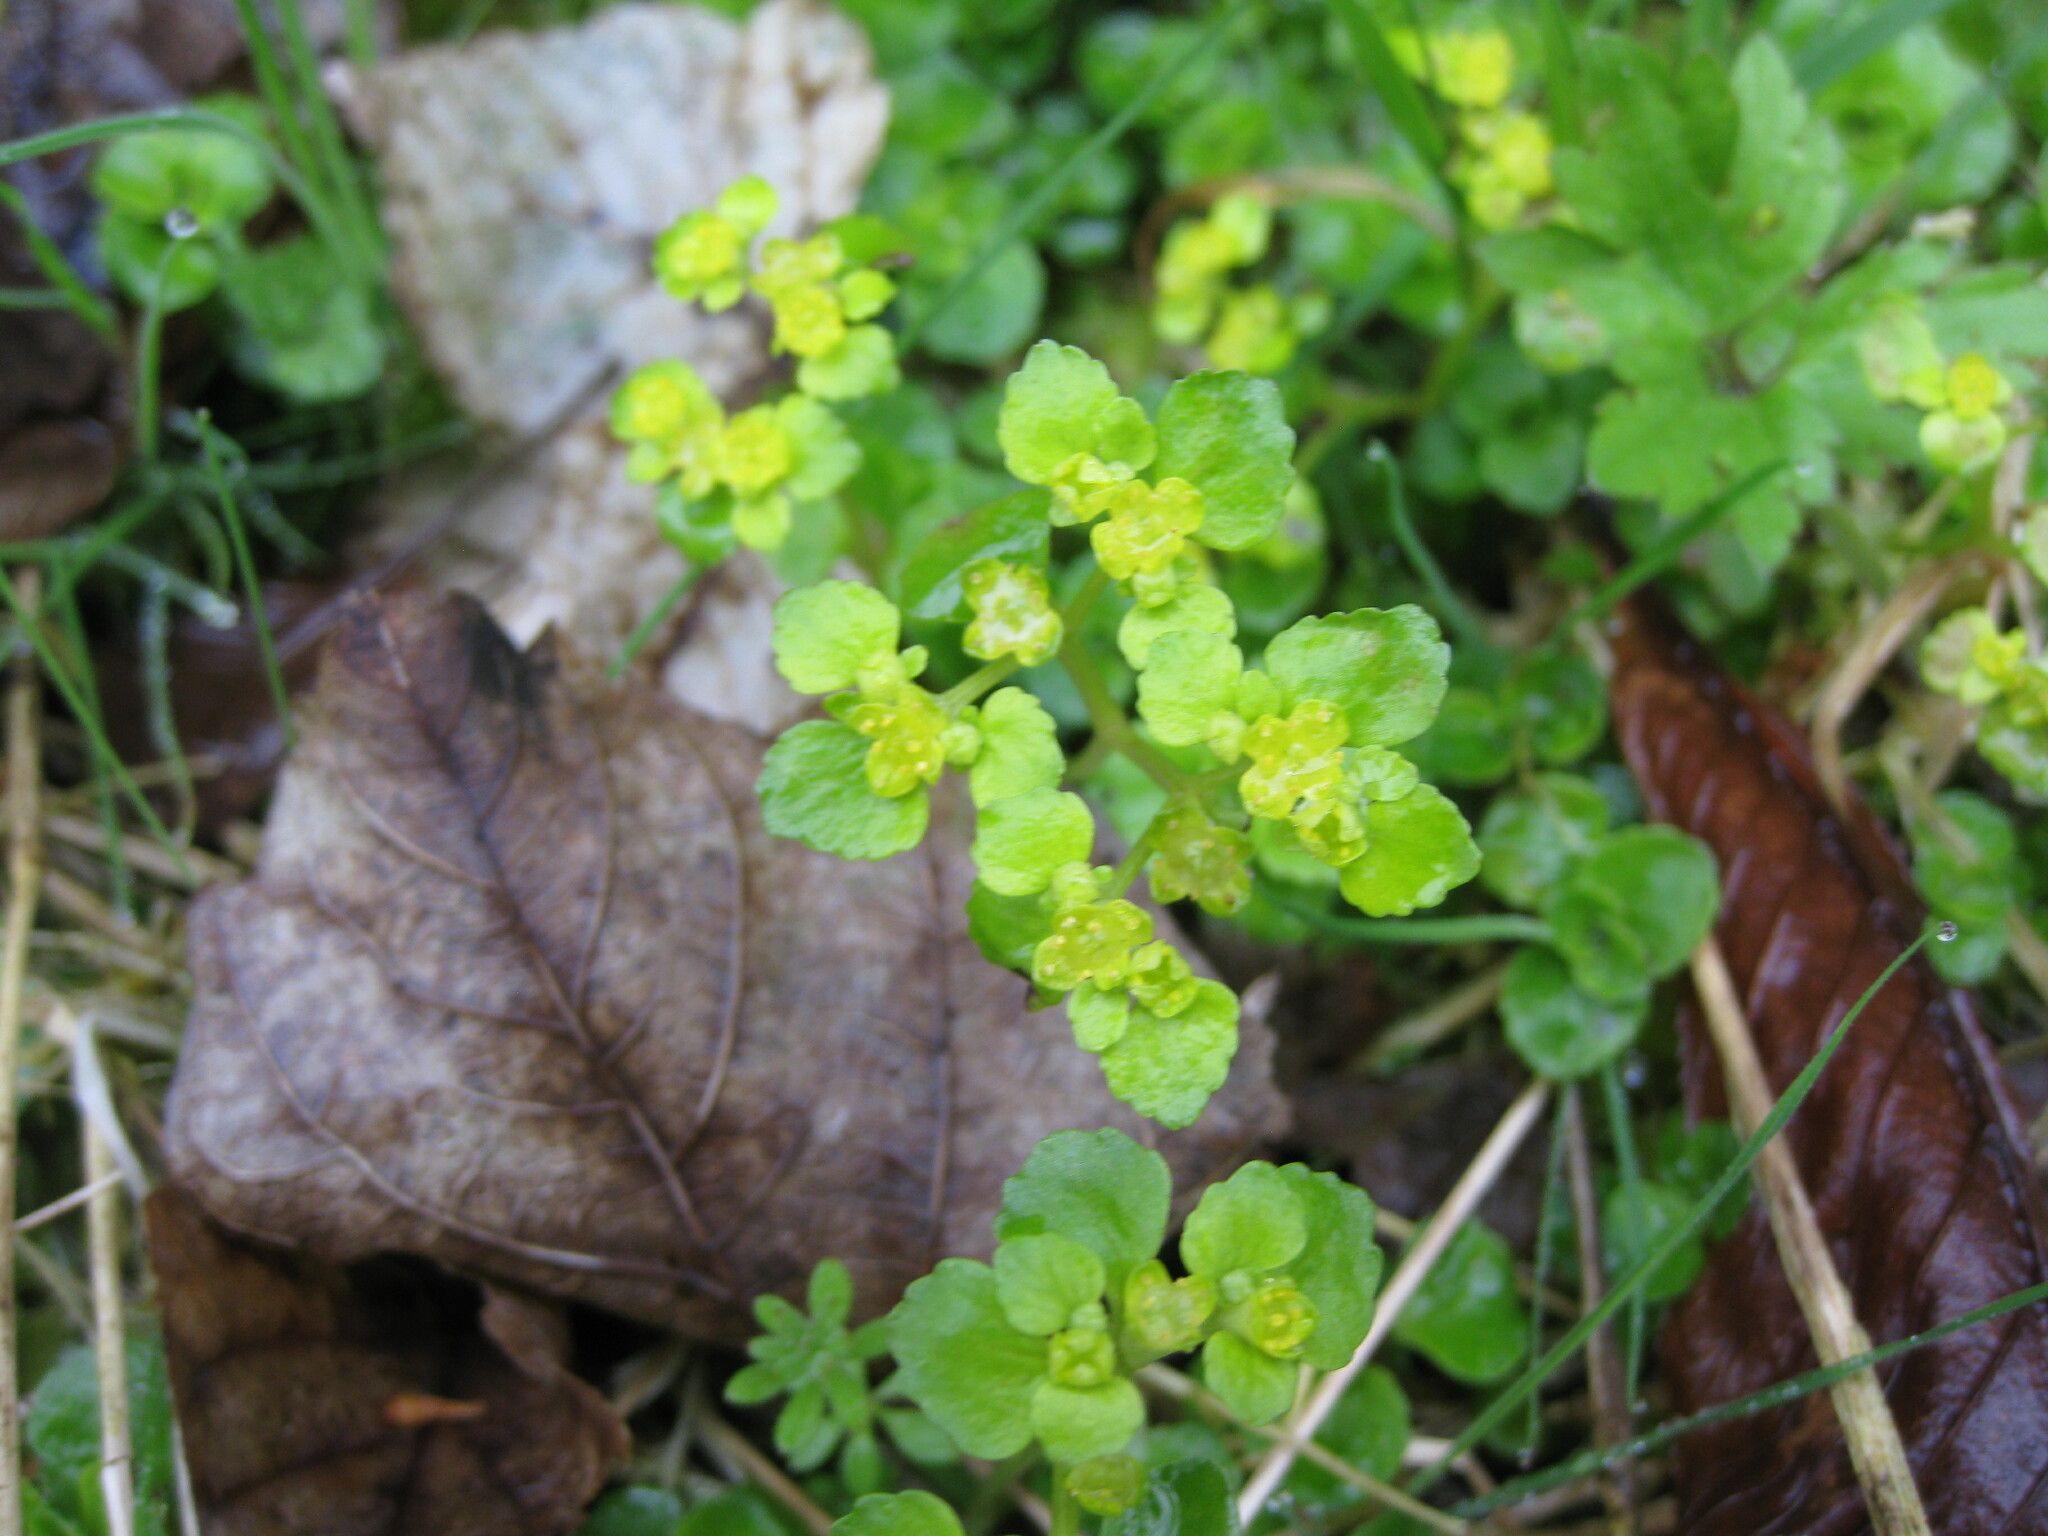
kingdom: Plantae
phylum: Tracheophyta
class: Magnoliopsida
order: Saxifragales
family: Saxifragaceae
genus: Chrysosplenium
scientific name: Chrysosplenium oppositifolium
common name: Opposite-leaved golden-saxifrage
